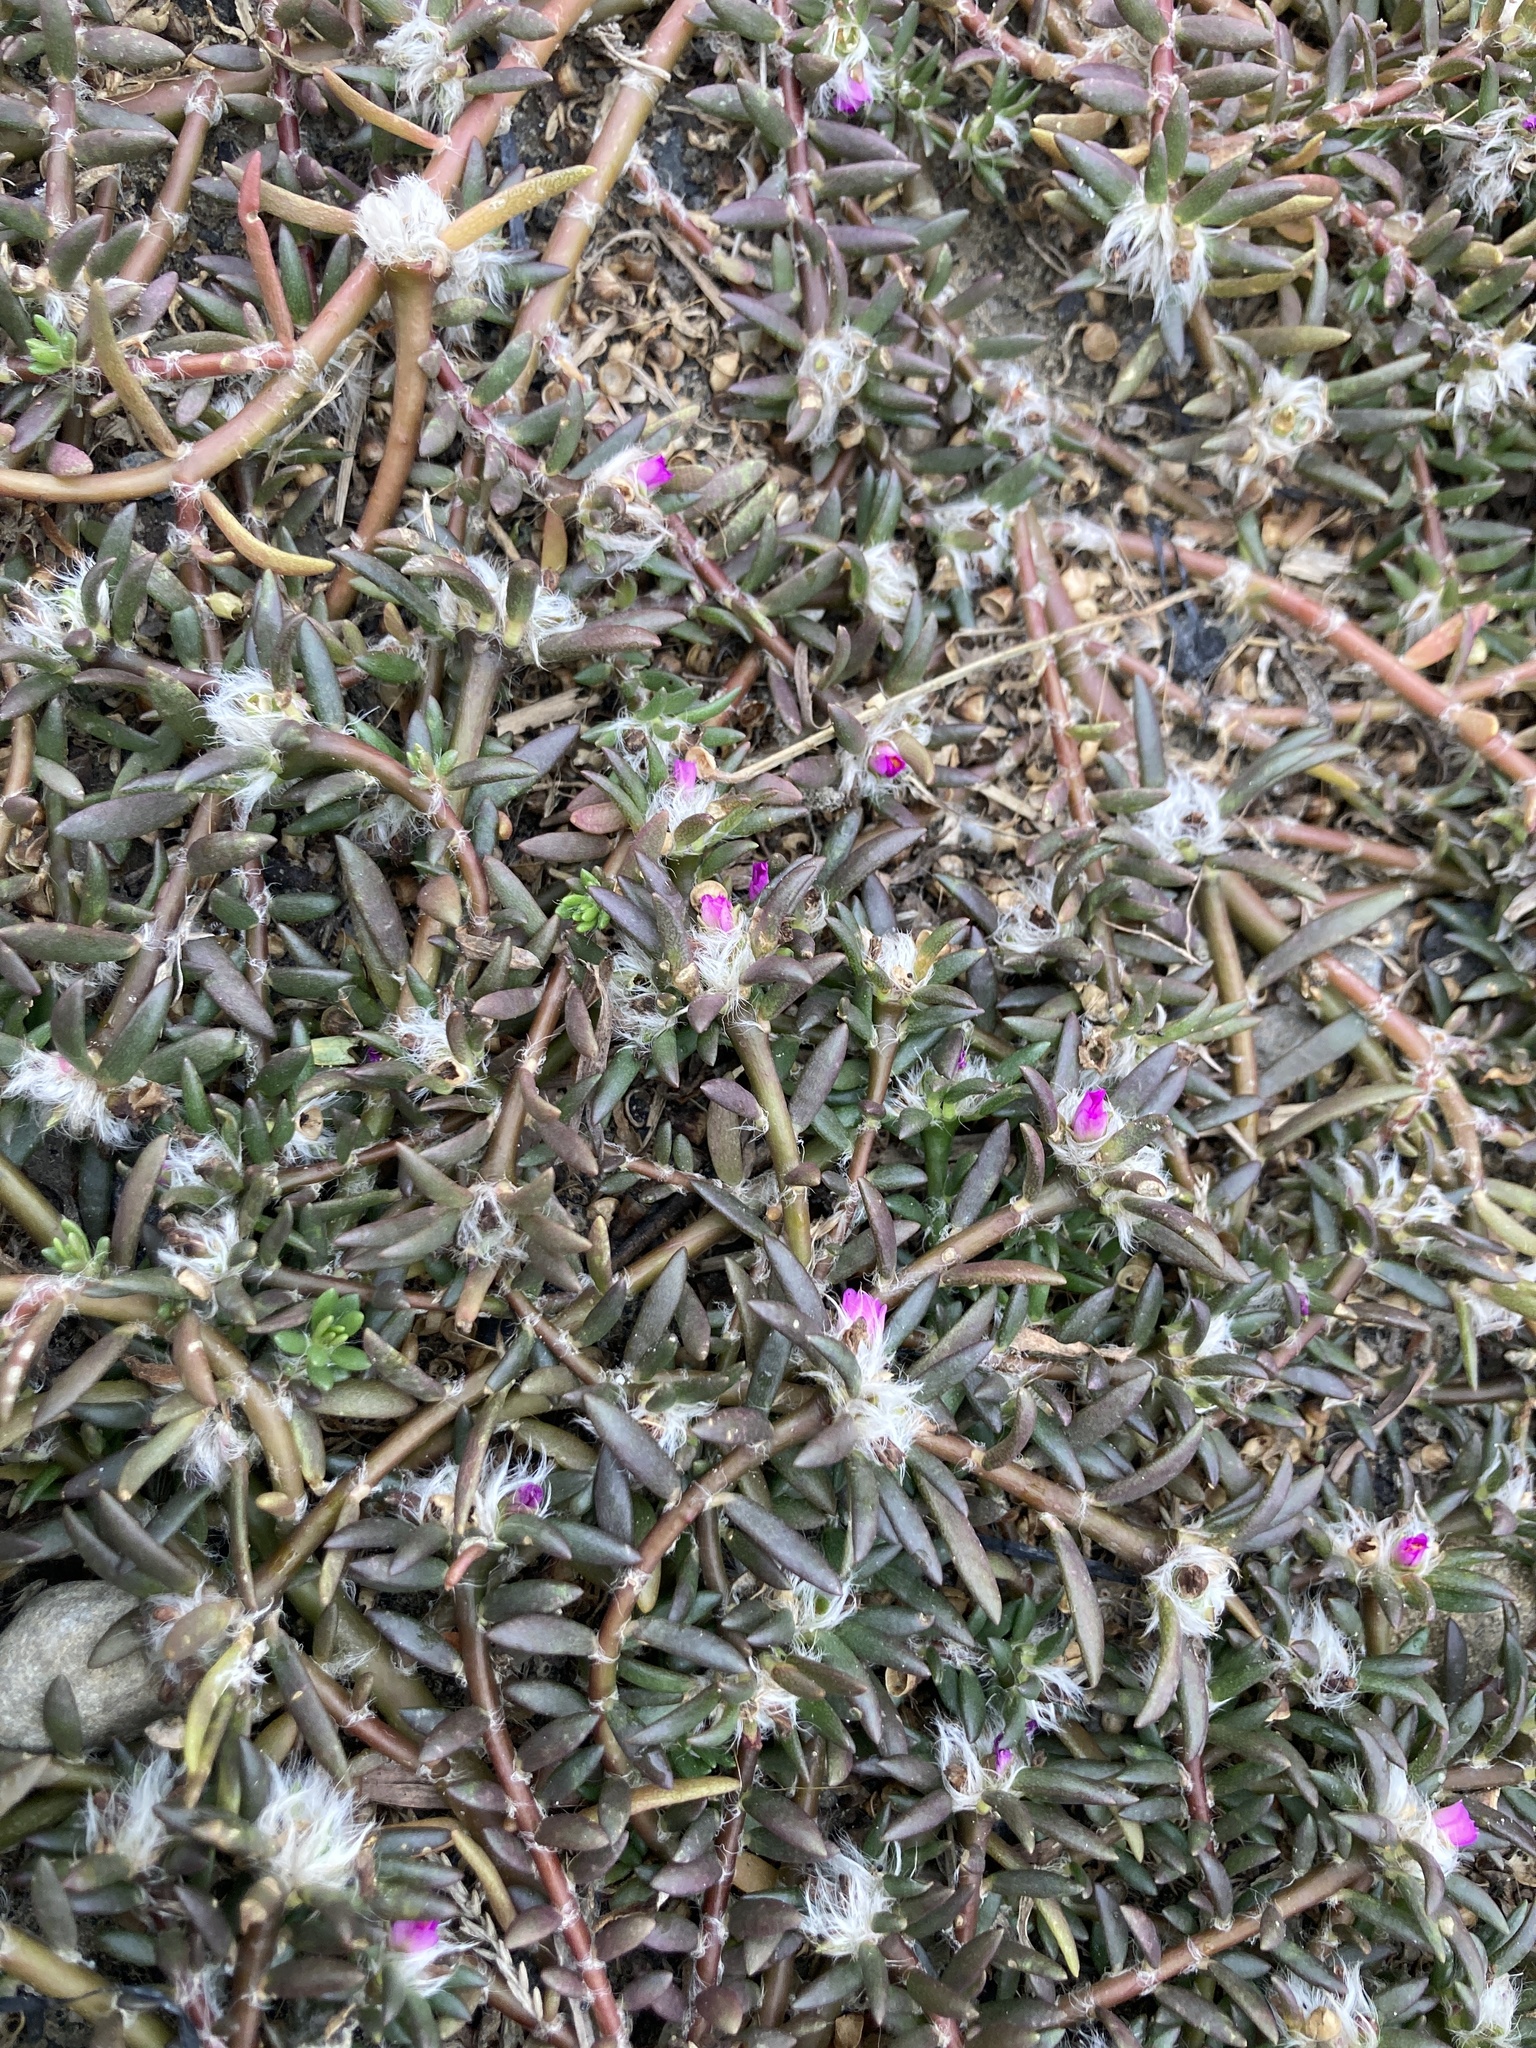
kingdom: Plantae
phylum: Tracheophyta
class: Magnoliopsida
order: Caryophyllales
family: Portulacaceae
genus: Portulaca
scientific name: Portulaca pilosa
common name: Kiss me quick
